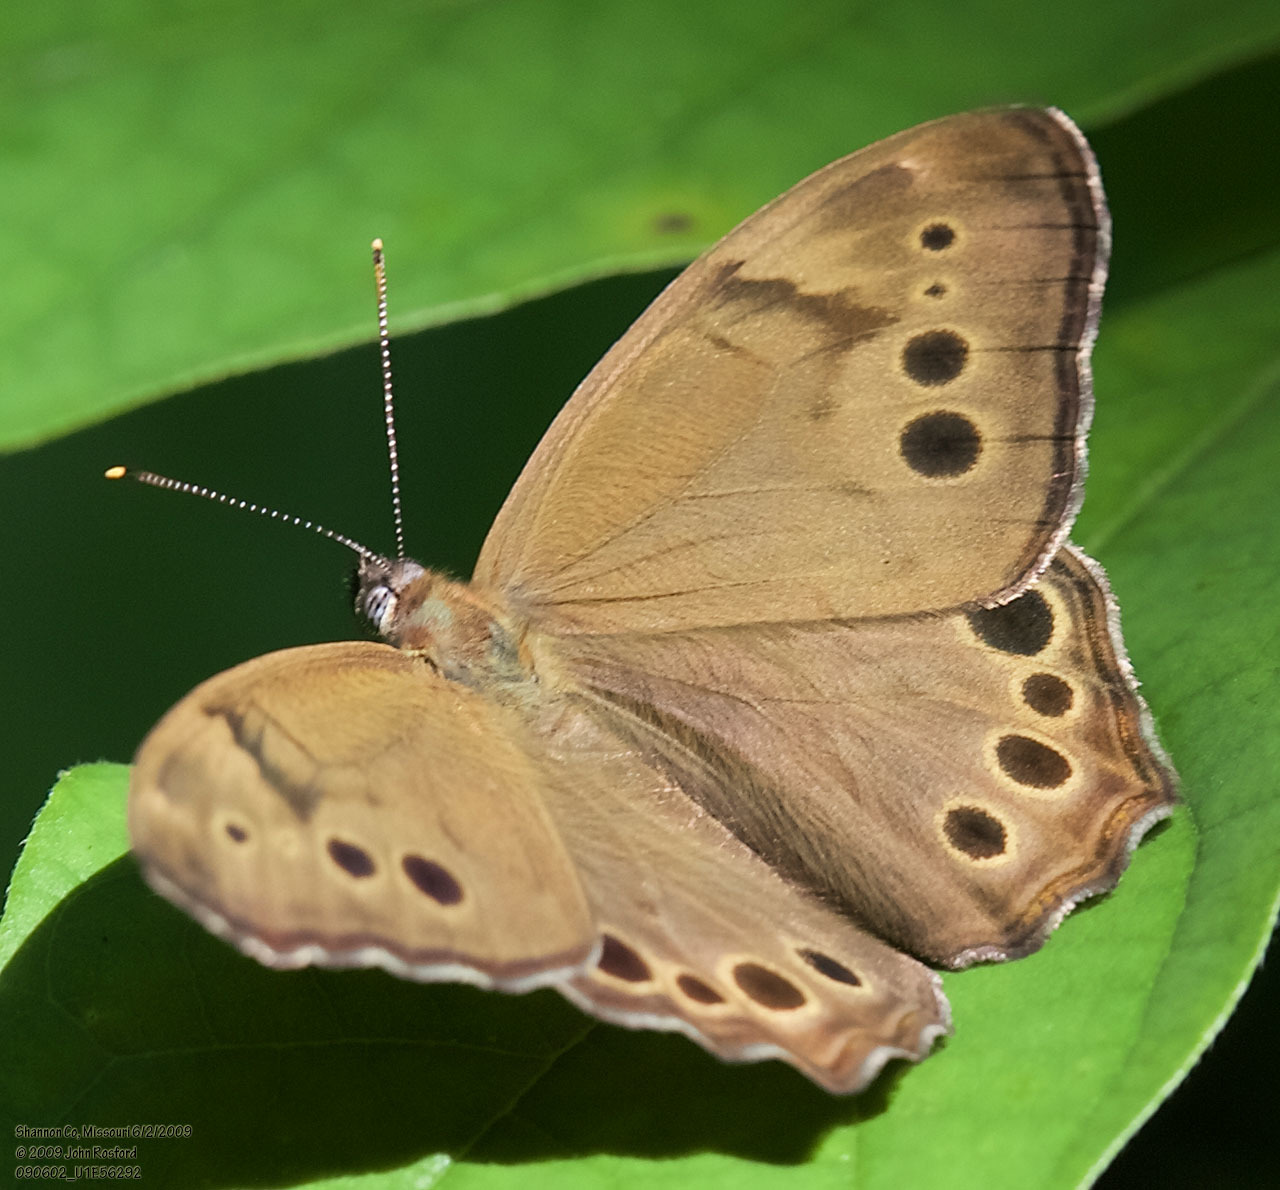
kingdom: Animalia
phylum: Arthropoda
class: Insecta
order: Lepidoptera
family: Nymphalidae
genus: Lethe
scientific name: Lethe anthedon
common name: Northern pearly-eye
